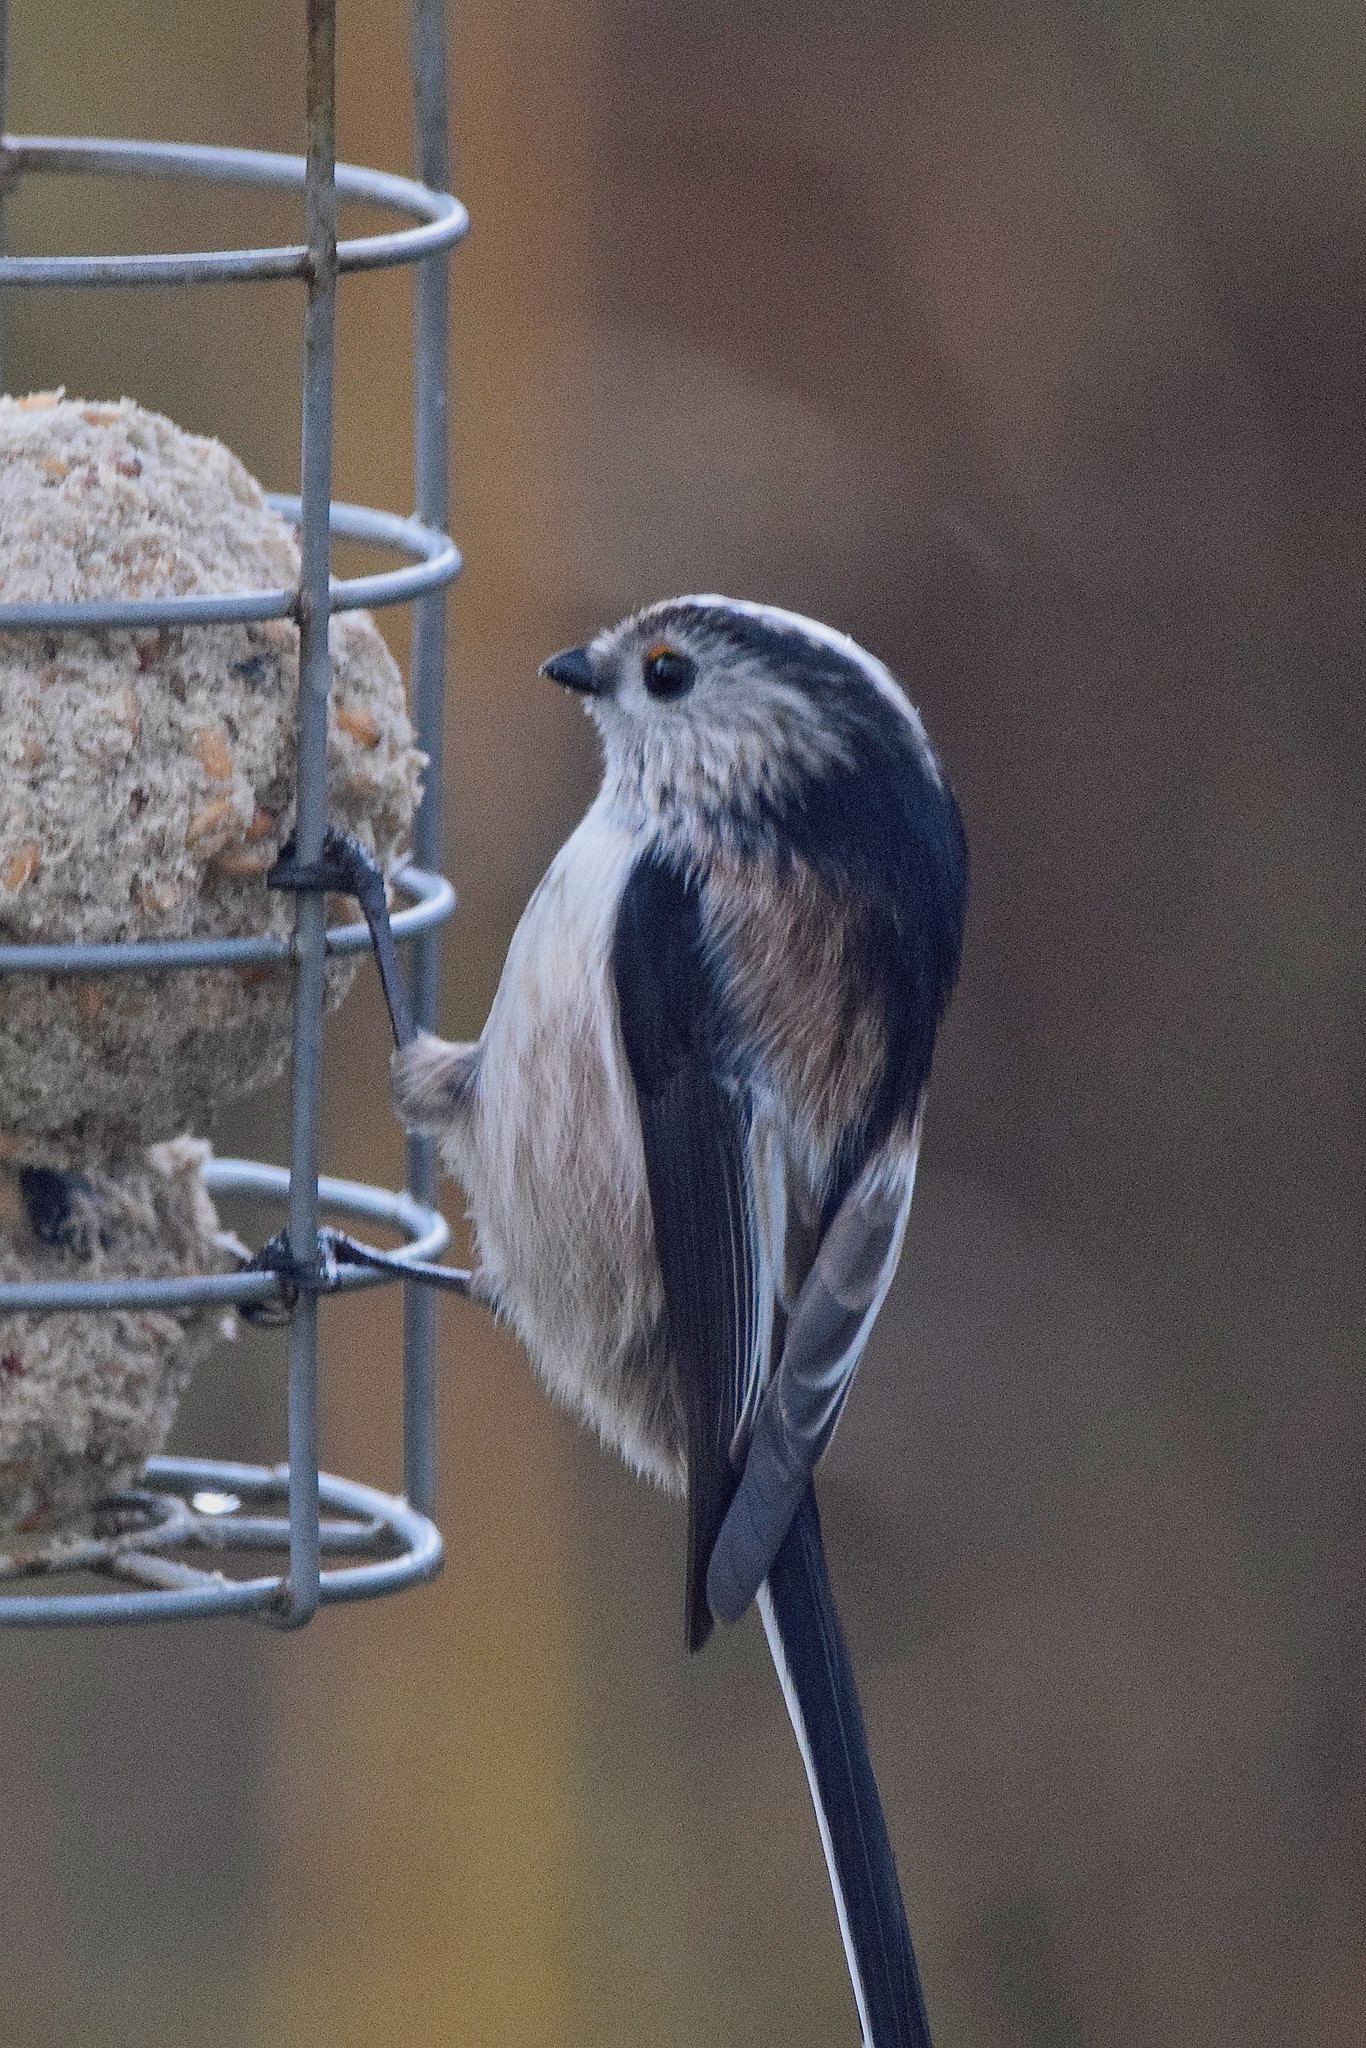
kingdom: Animalia
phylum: Chordata
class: Aves
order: Passeriformes
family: Aegithalidae
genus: Aegithalos
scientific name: Aegithalos caudatus
